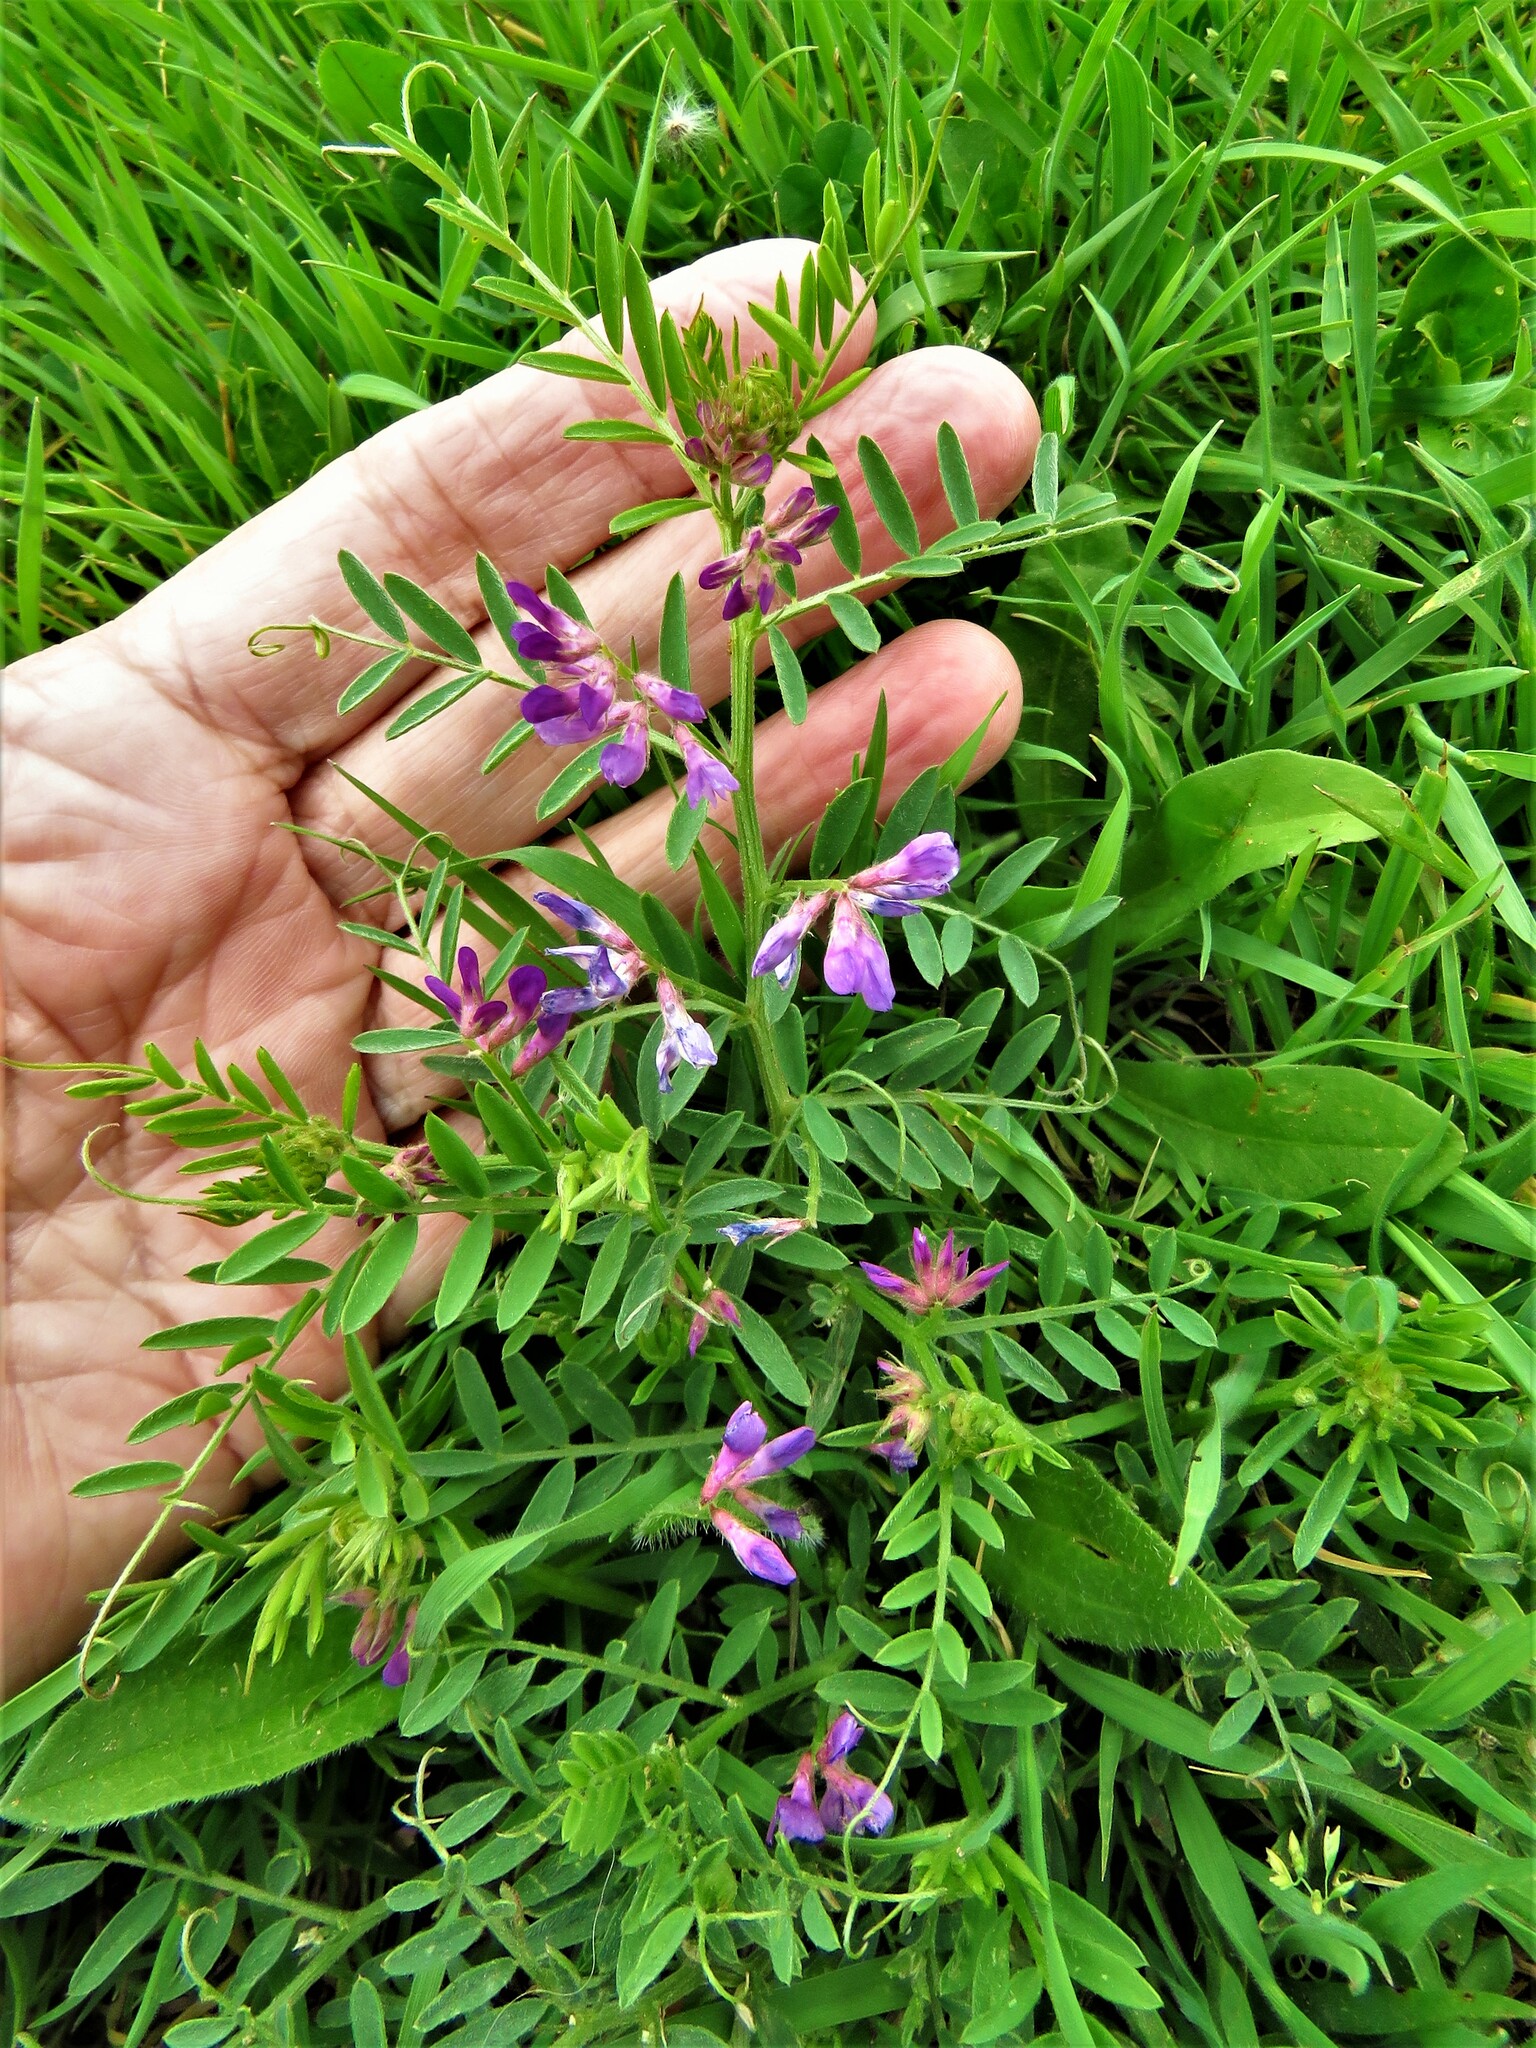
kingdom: Plantae
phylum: Tracheophyta
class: Magnoliopsida
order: Fabales
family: Fabaceae
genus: Vicia
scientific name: Vicia ludoviciana
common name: Louisiana vetch
